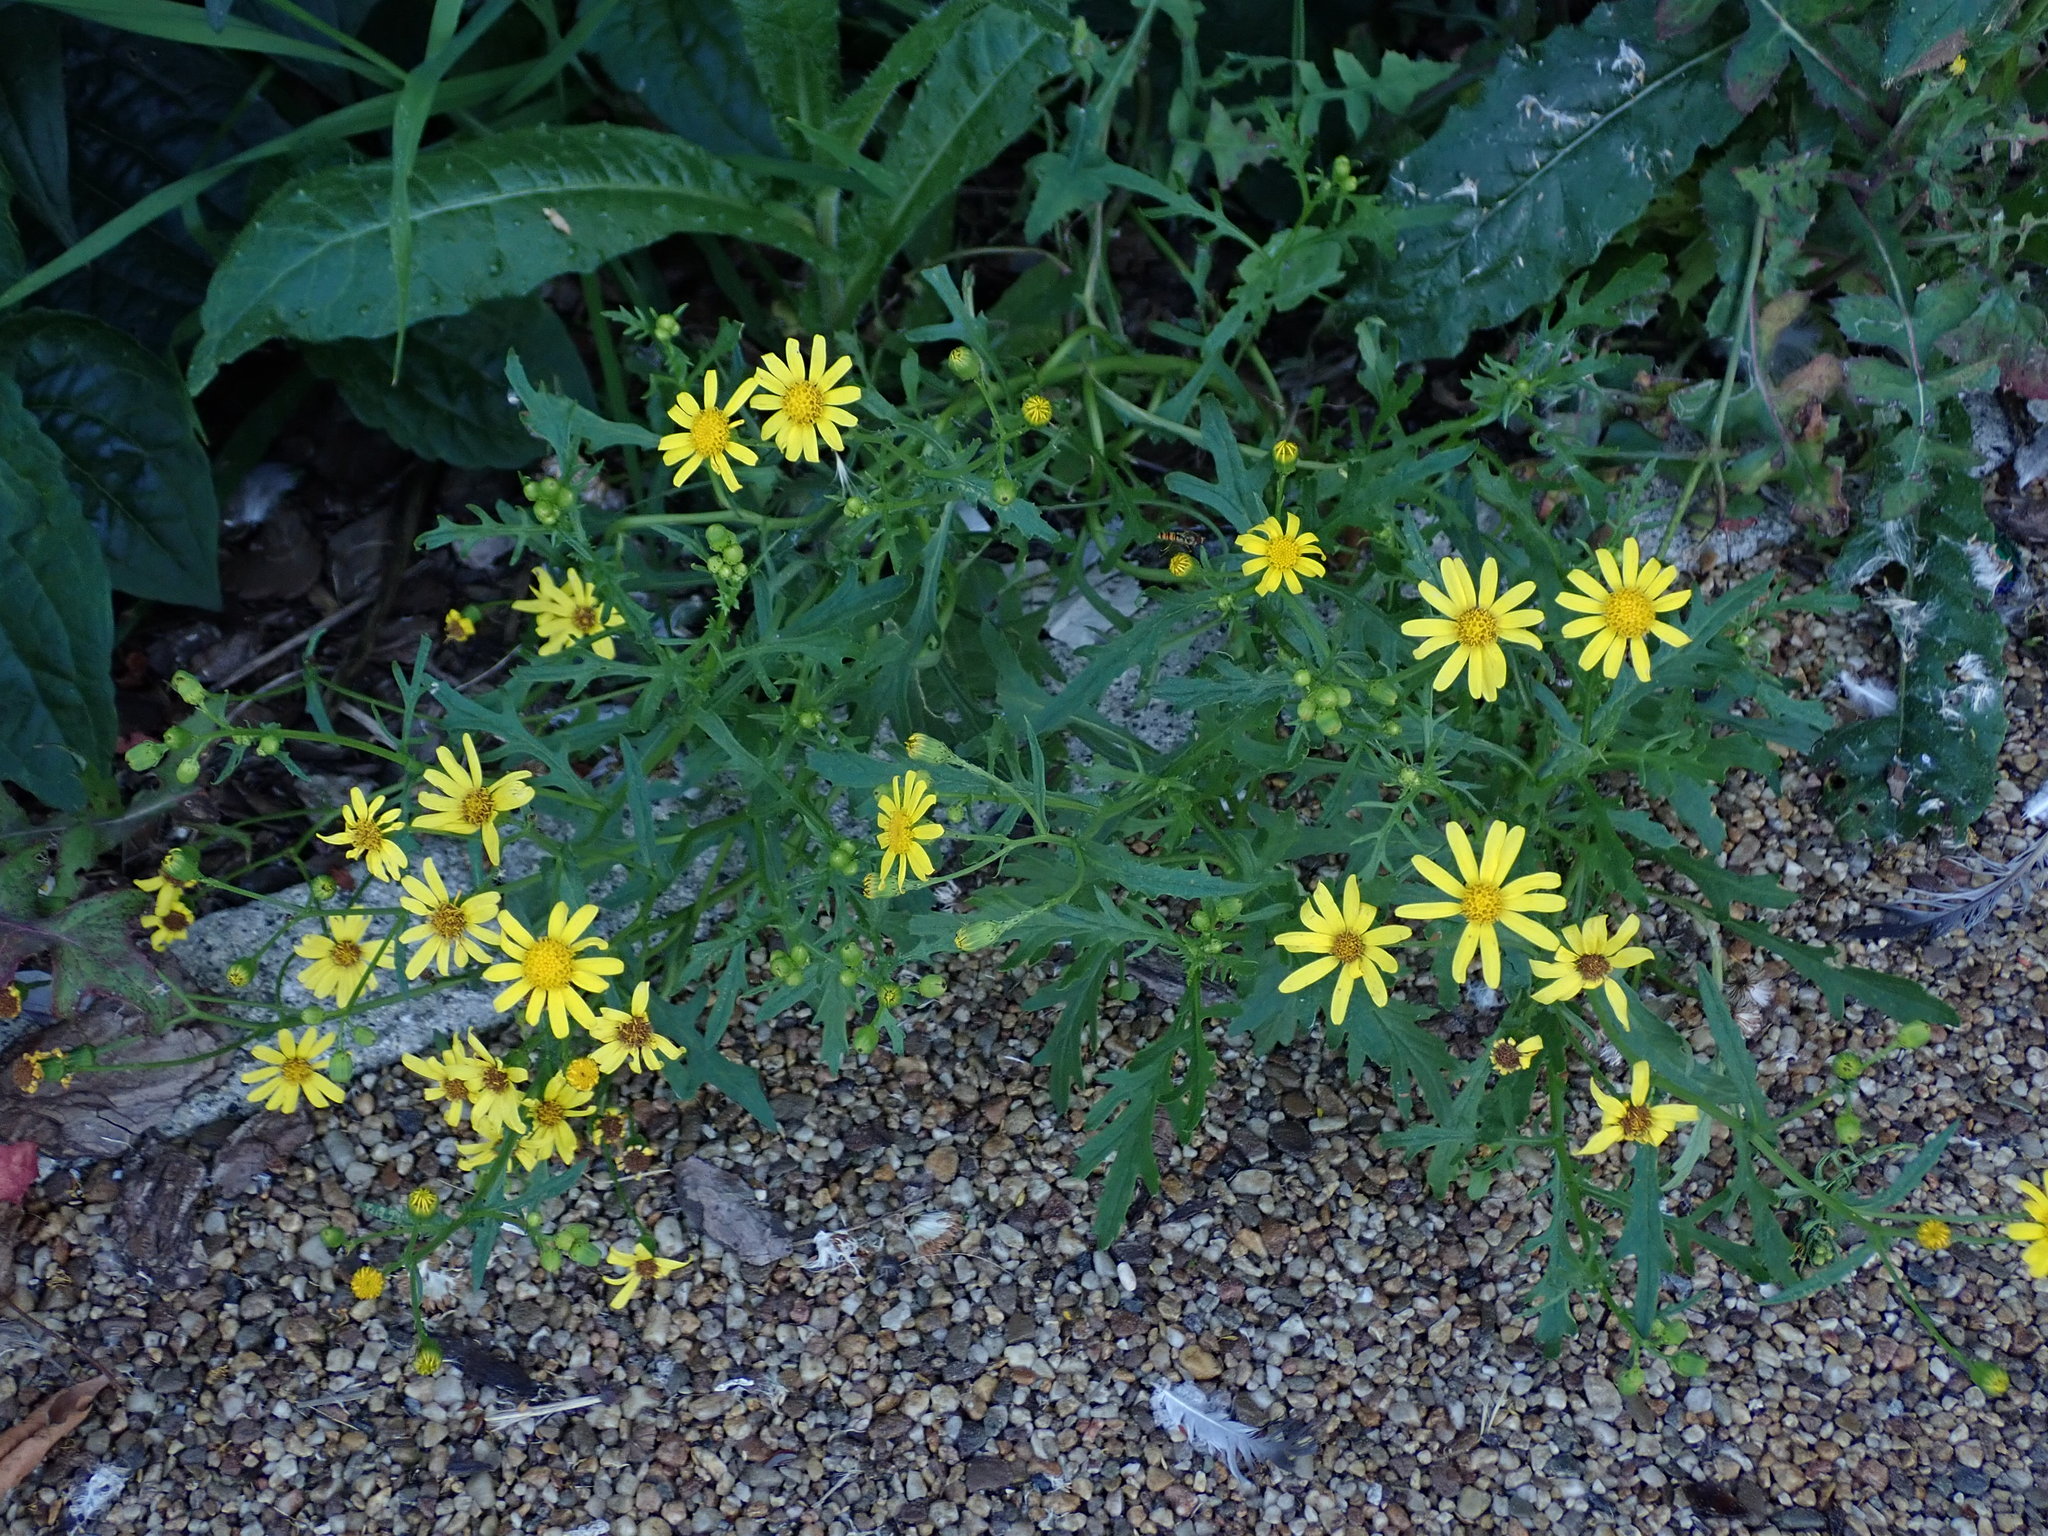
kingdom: Plantae
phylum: Tracheophyta
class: Magnoliopsida
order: Asterales
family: Asteraceae
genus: Senecio
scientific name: Senecio squalidus
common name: Oxford ragwort
